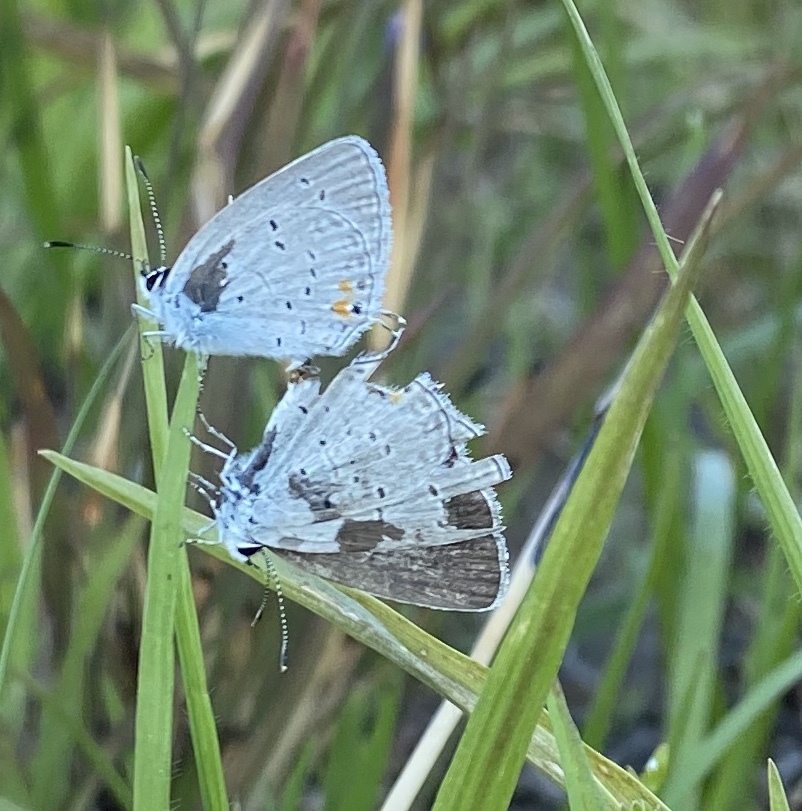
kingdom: Animalia
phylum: Arthropoda
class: Insecta
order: Lepidoptera
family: Lycaenidae
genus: Elkalyce
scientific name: Elkalyce comyntas
